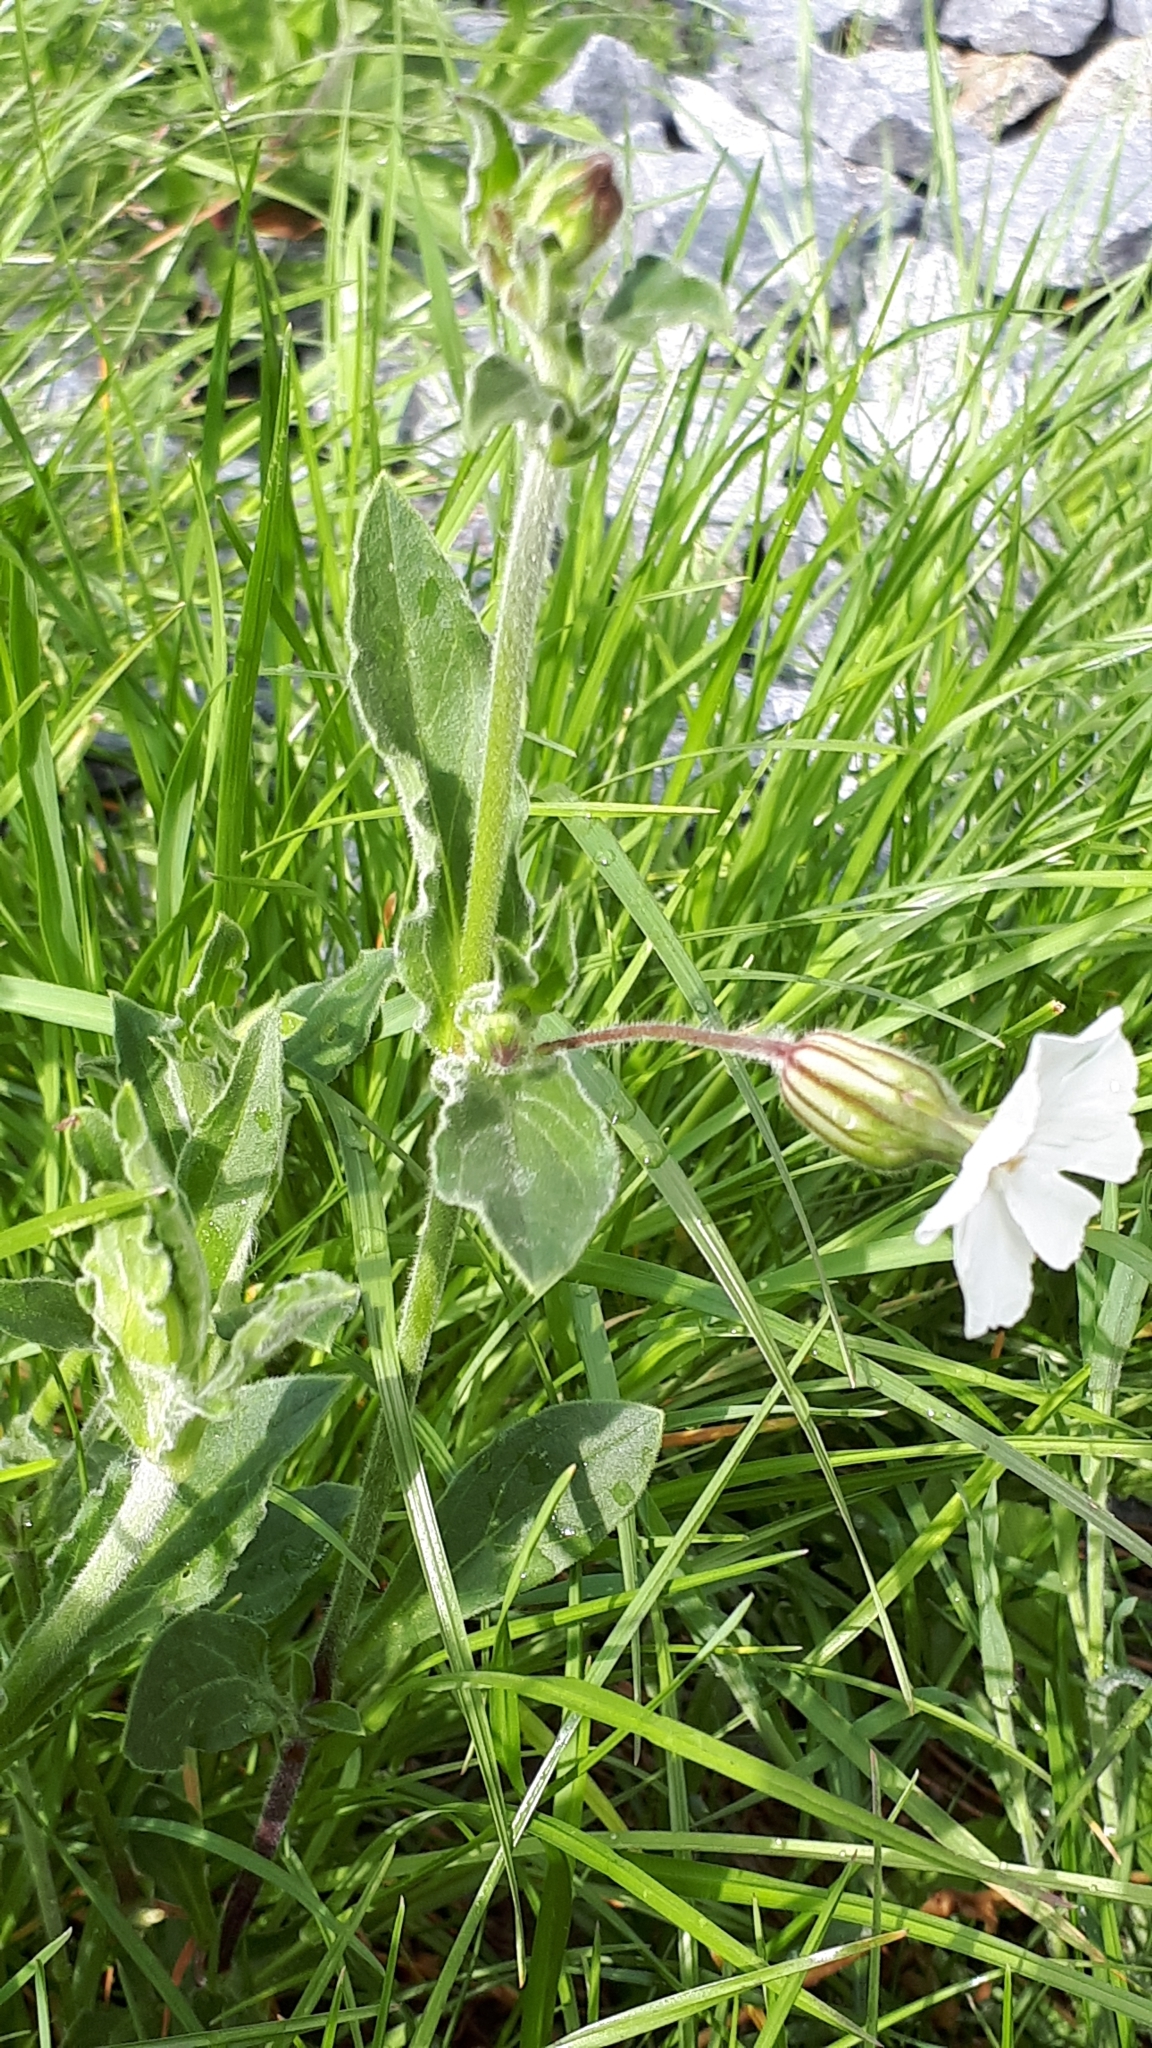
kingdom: Plantae
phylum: Tracheophyta
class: Magnoliopsida
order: Caryophyllales
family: Caryophyllaceae
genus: Silene
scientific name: Silene latifolia
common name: White campion
